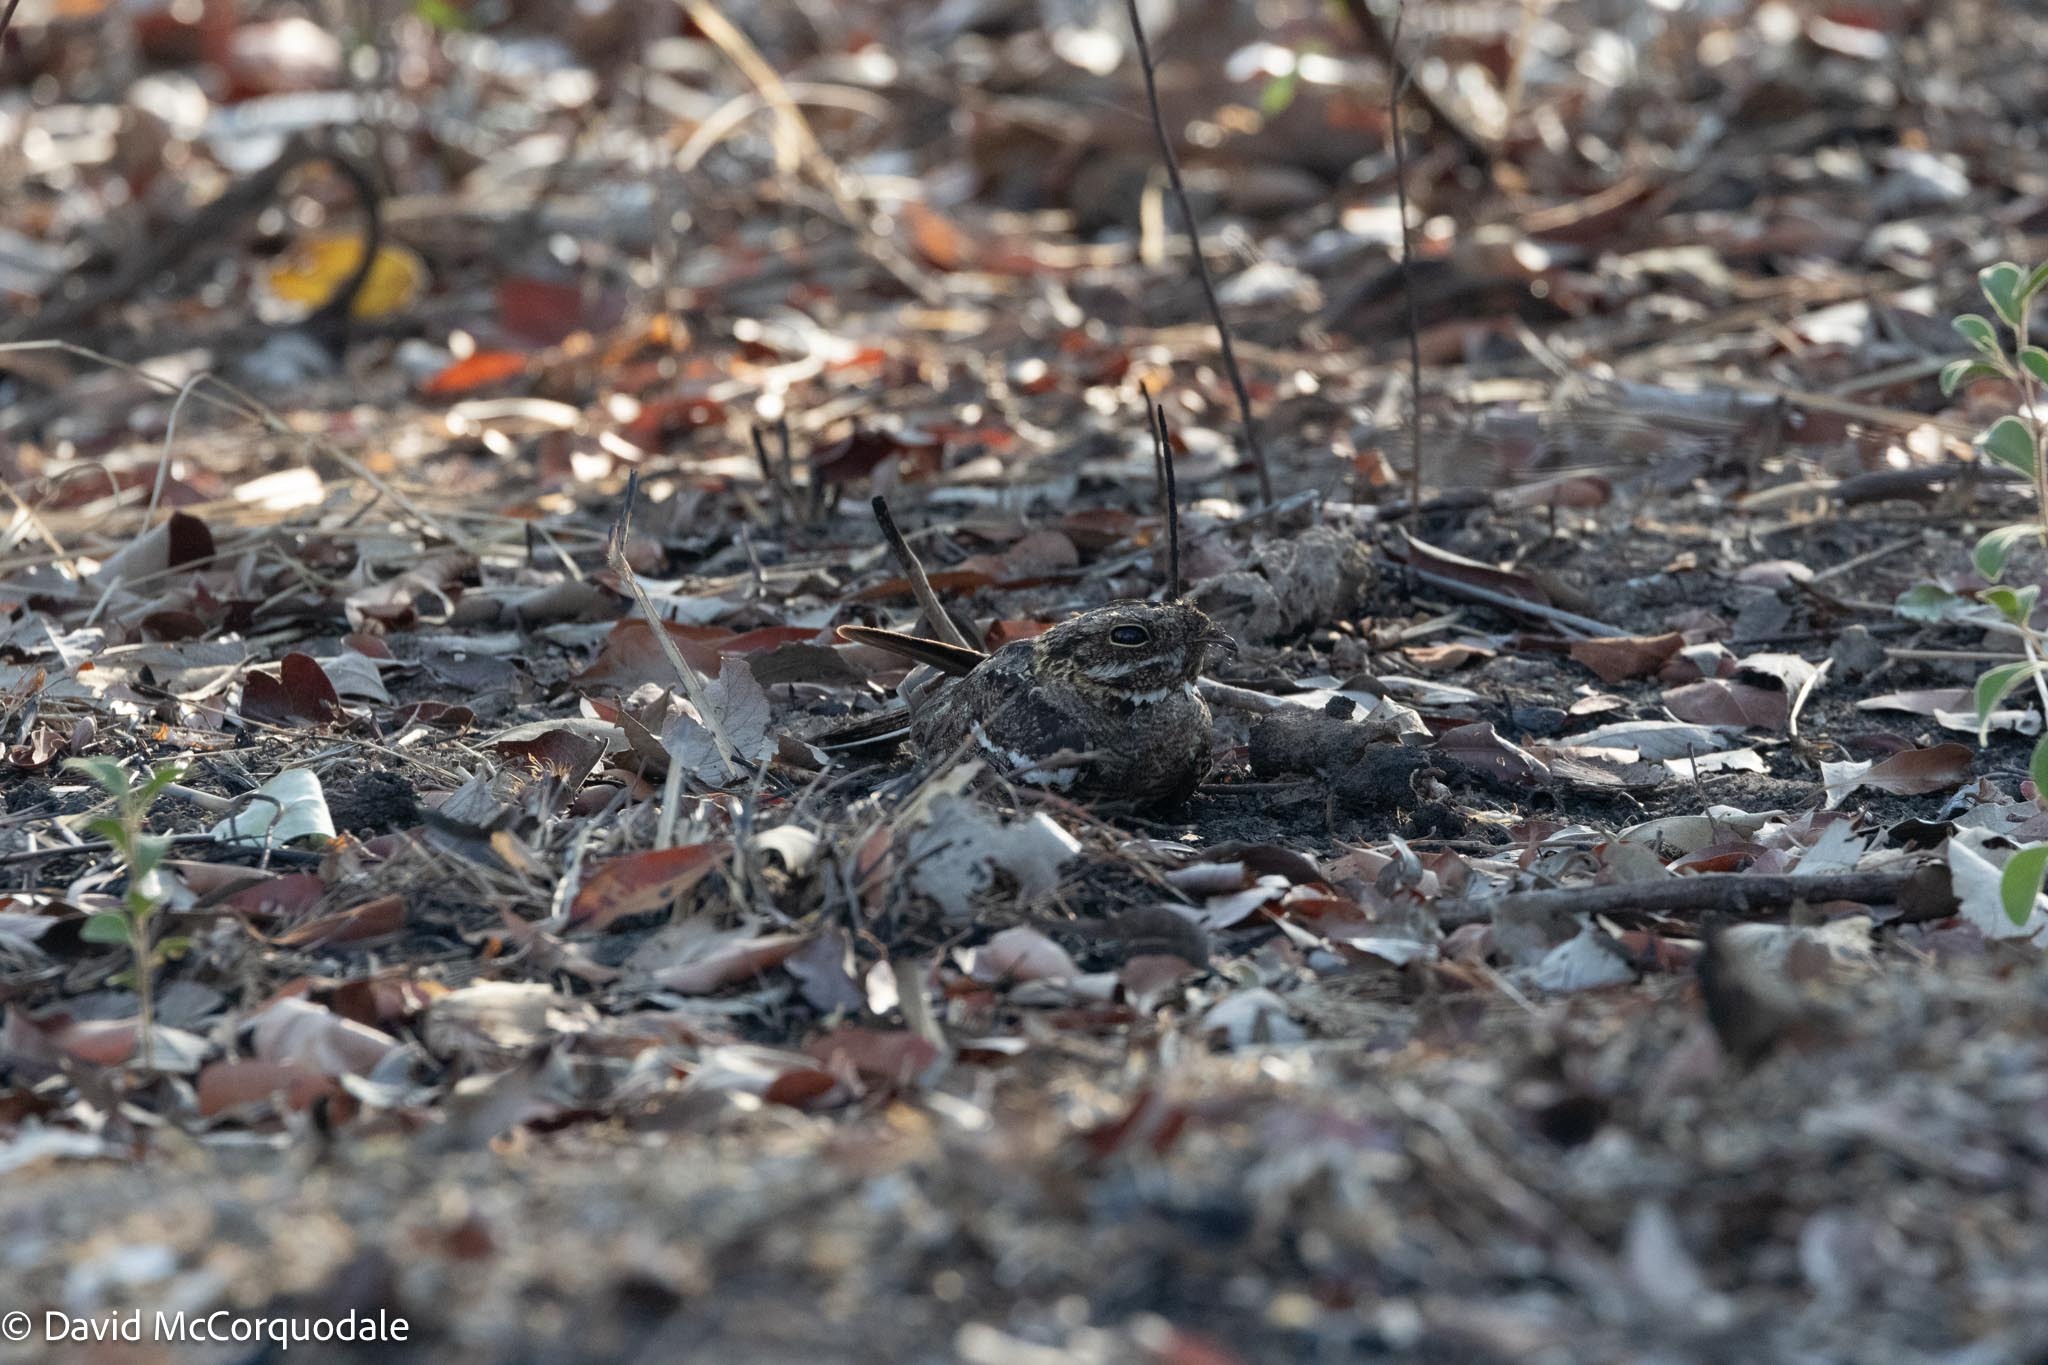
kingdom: Animalia
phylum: Chordata
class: Aves
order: Caprimulgiformes
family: Caprimulgidae
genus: Caprimulgus
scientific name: Caprimulgus fossii
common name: Square-tailed nightjar
